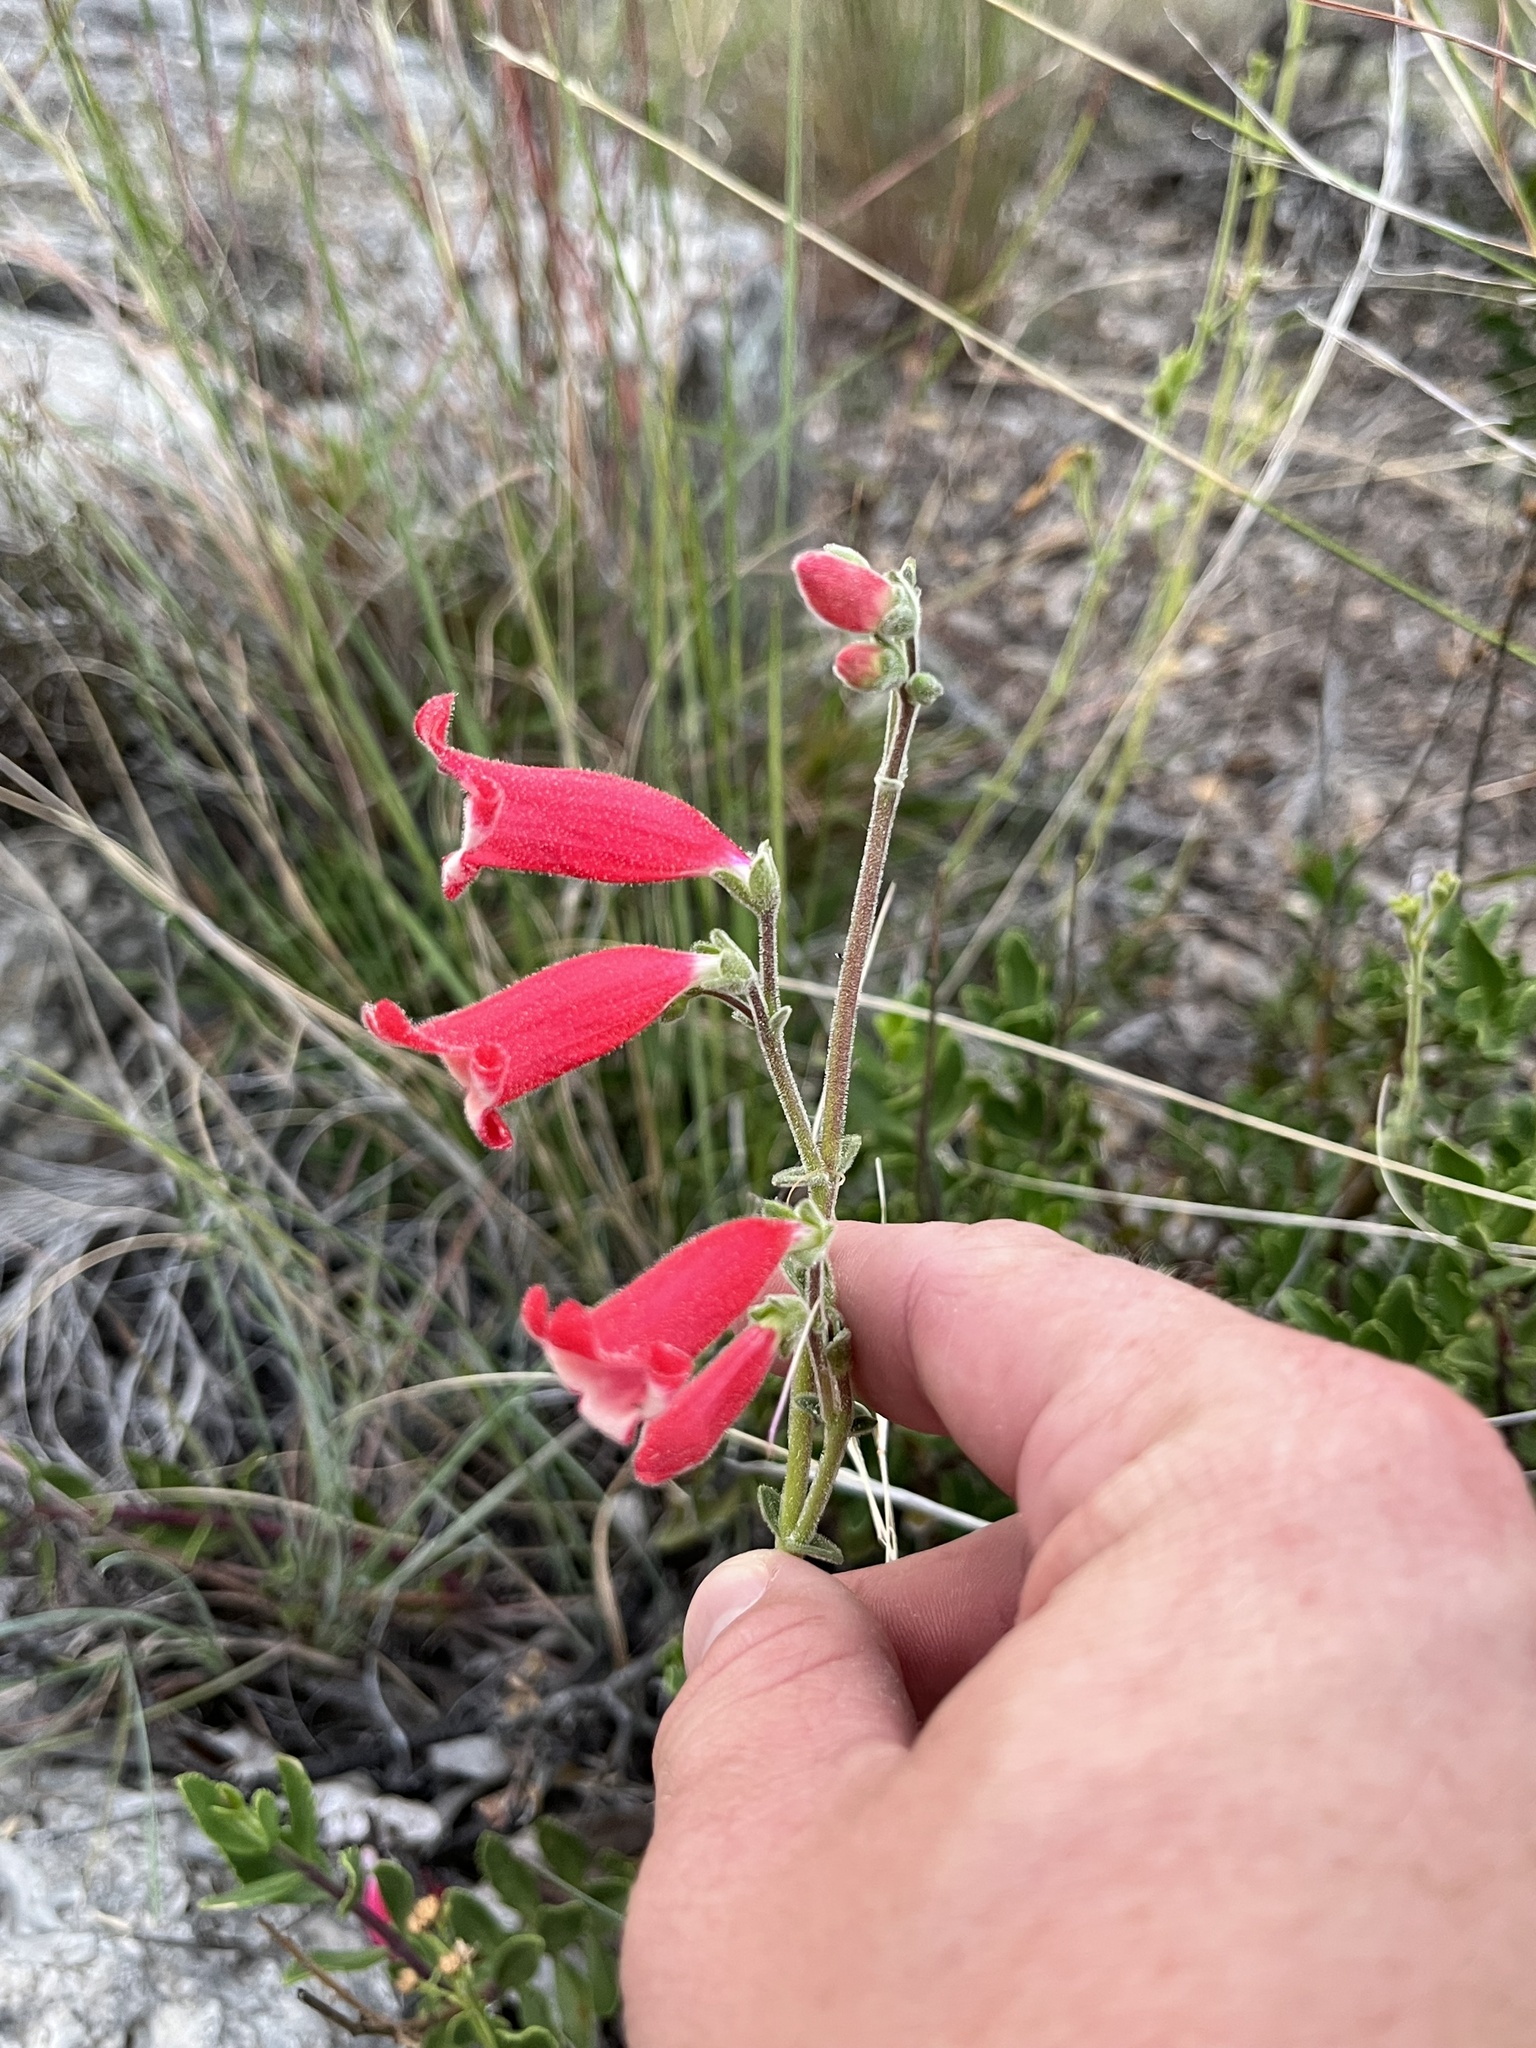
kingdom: Plantae
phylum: Tracheophyta
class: Magnoliopsida
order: Lamiales
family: Plantaginaceae
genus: Penstemon
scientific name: Penstemon baccharifolius
